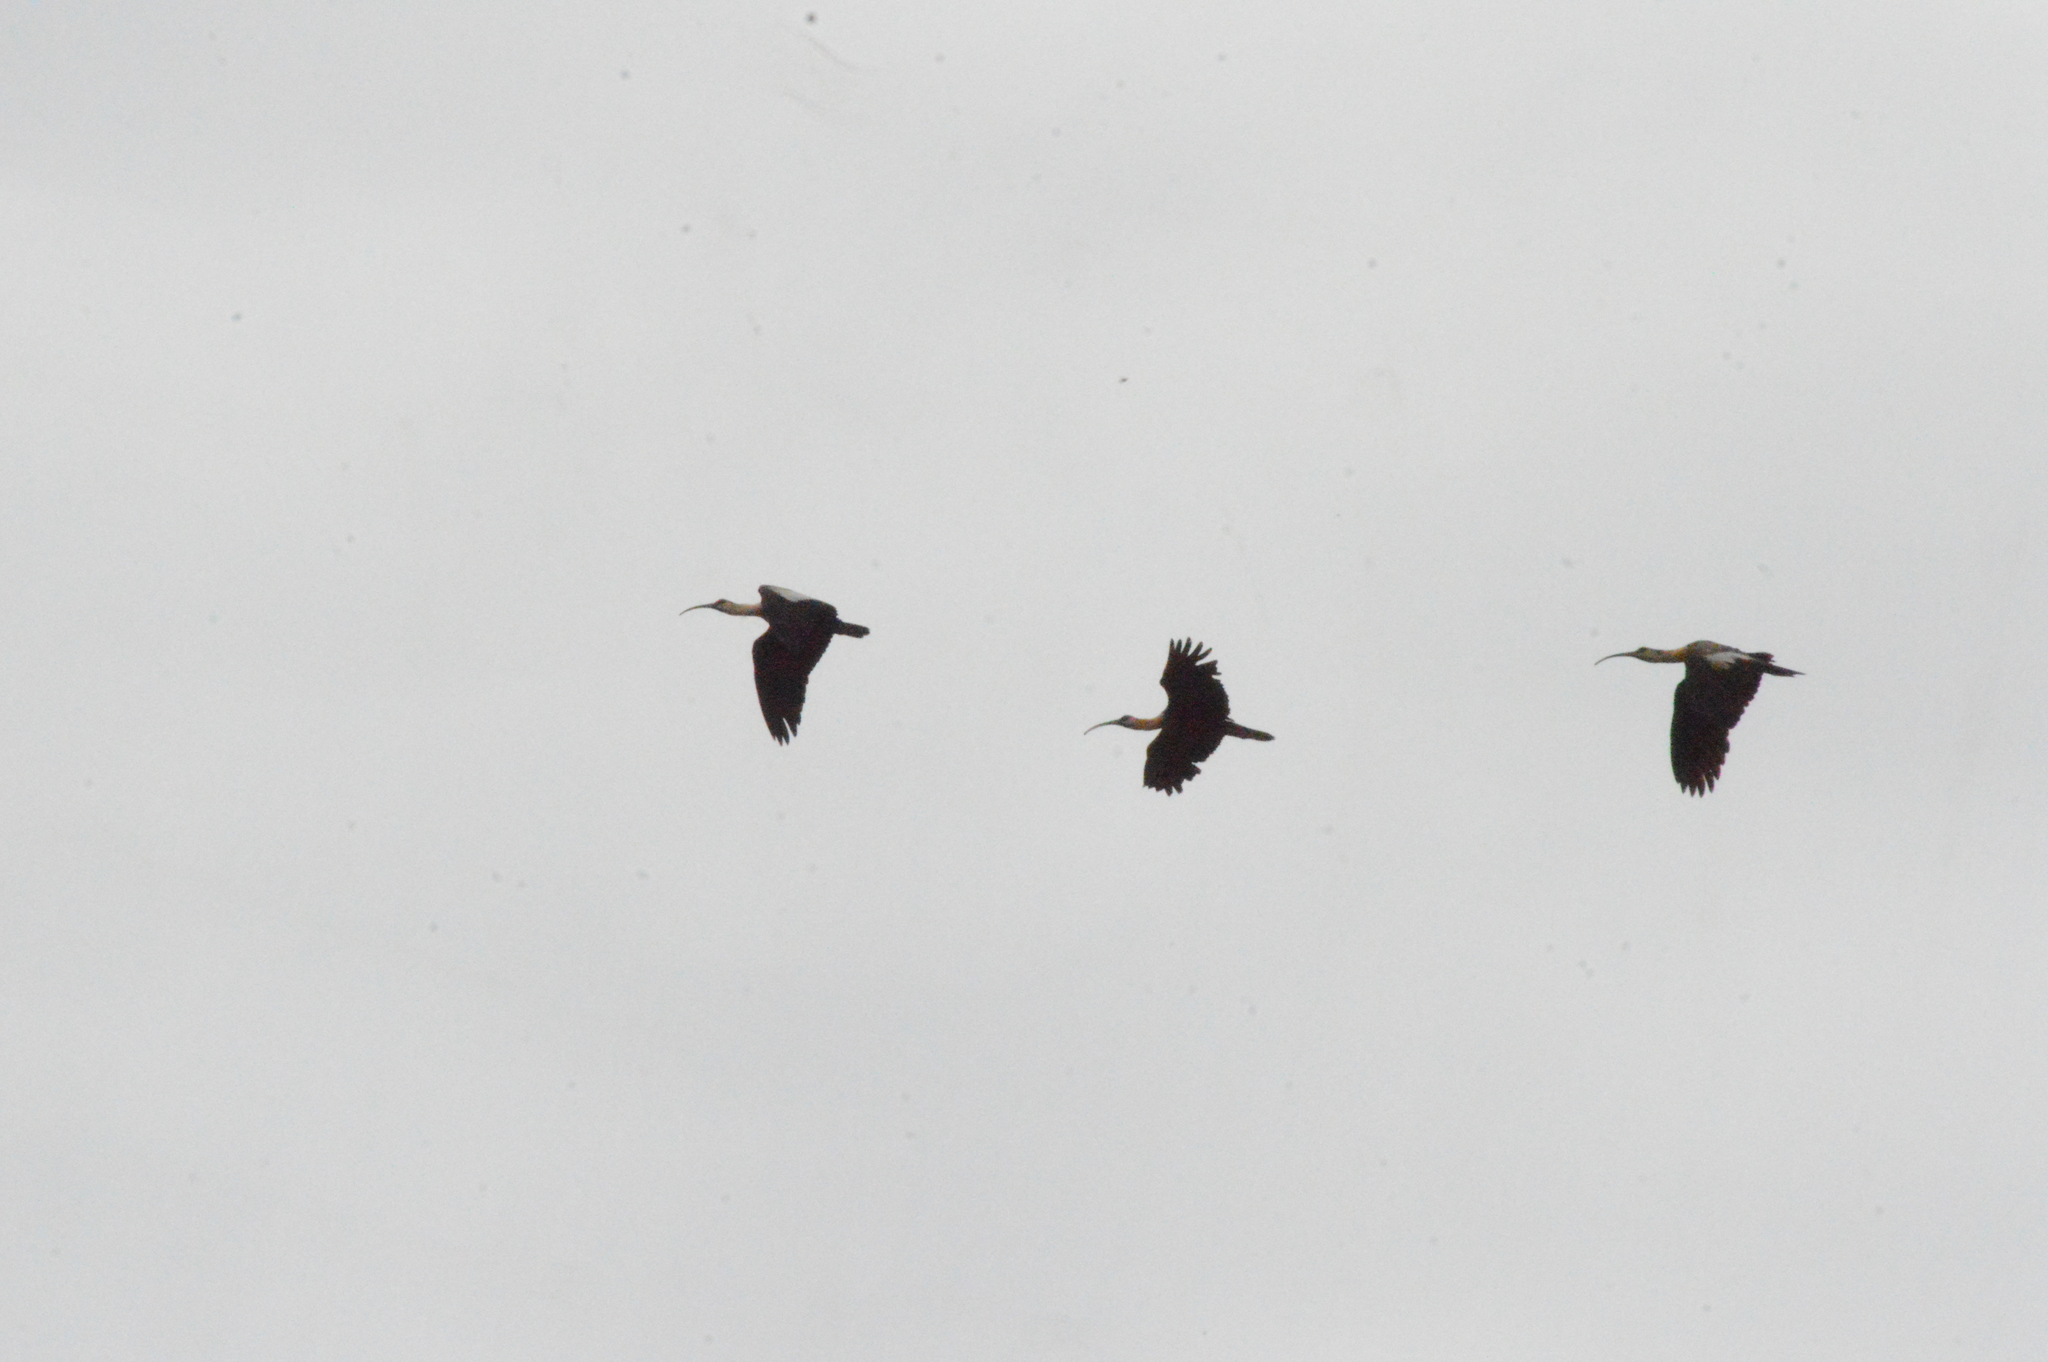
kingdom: Animalia
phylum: Chordata
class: Aves
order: Pelecaniformes
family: Threskiornithidae
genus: Theristicus
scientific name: Theristicus caudatus
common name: Buff-necked ibis
